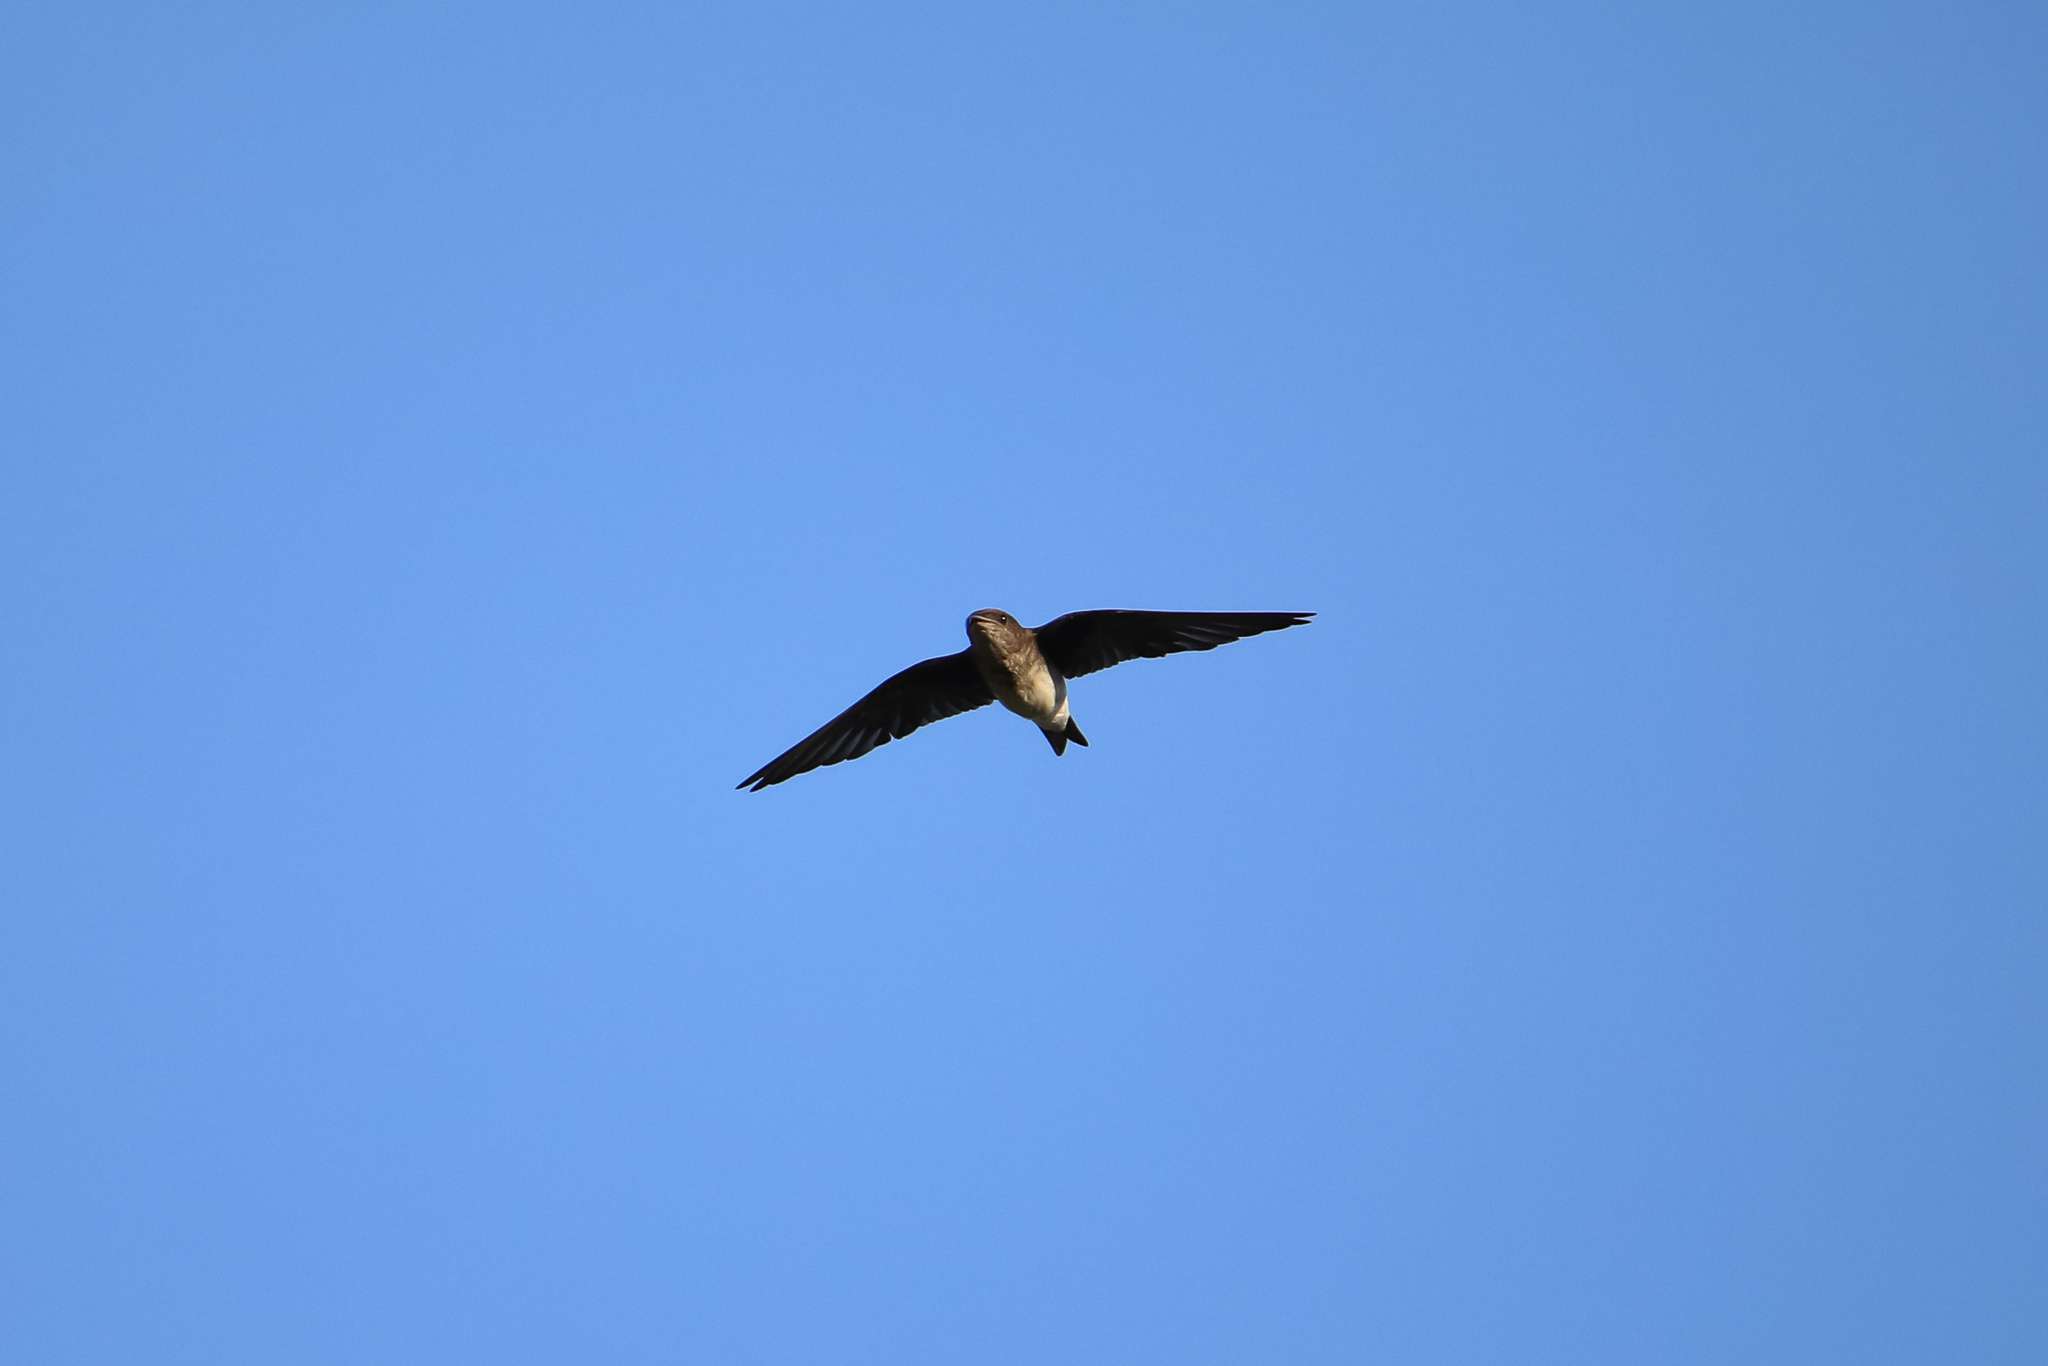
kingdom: Animalia
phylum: Chordata
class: Aves
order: Passeriformes
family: Hirundinidae
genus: Progne
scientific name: Progne chalybea
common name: Grey-breasted martin
